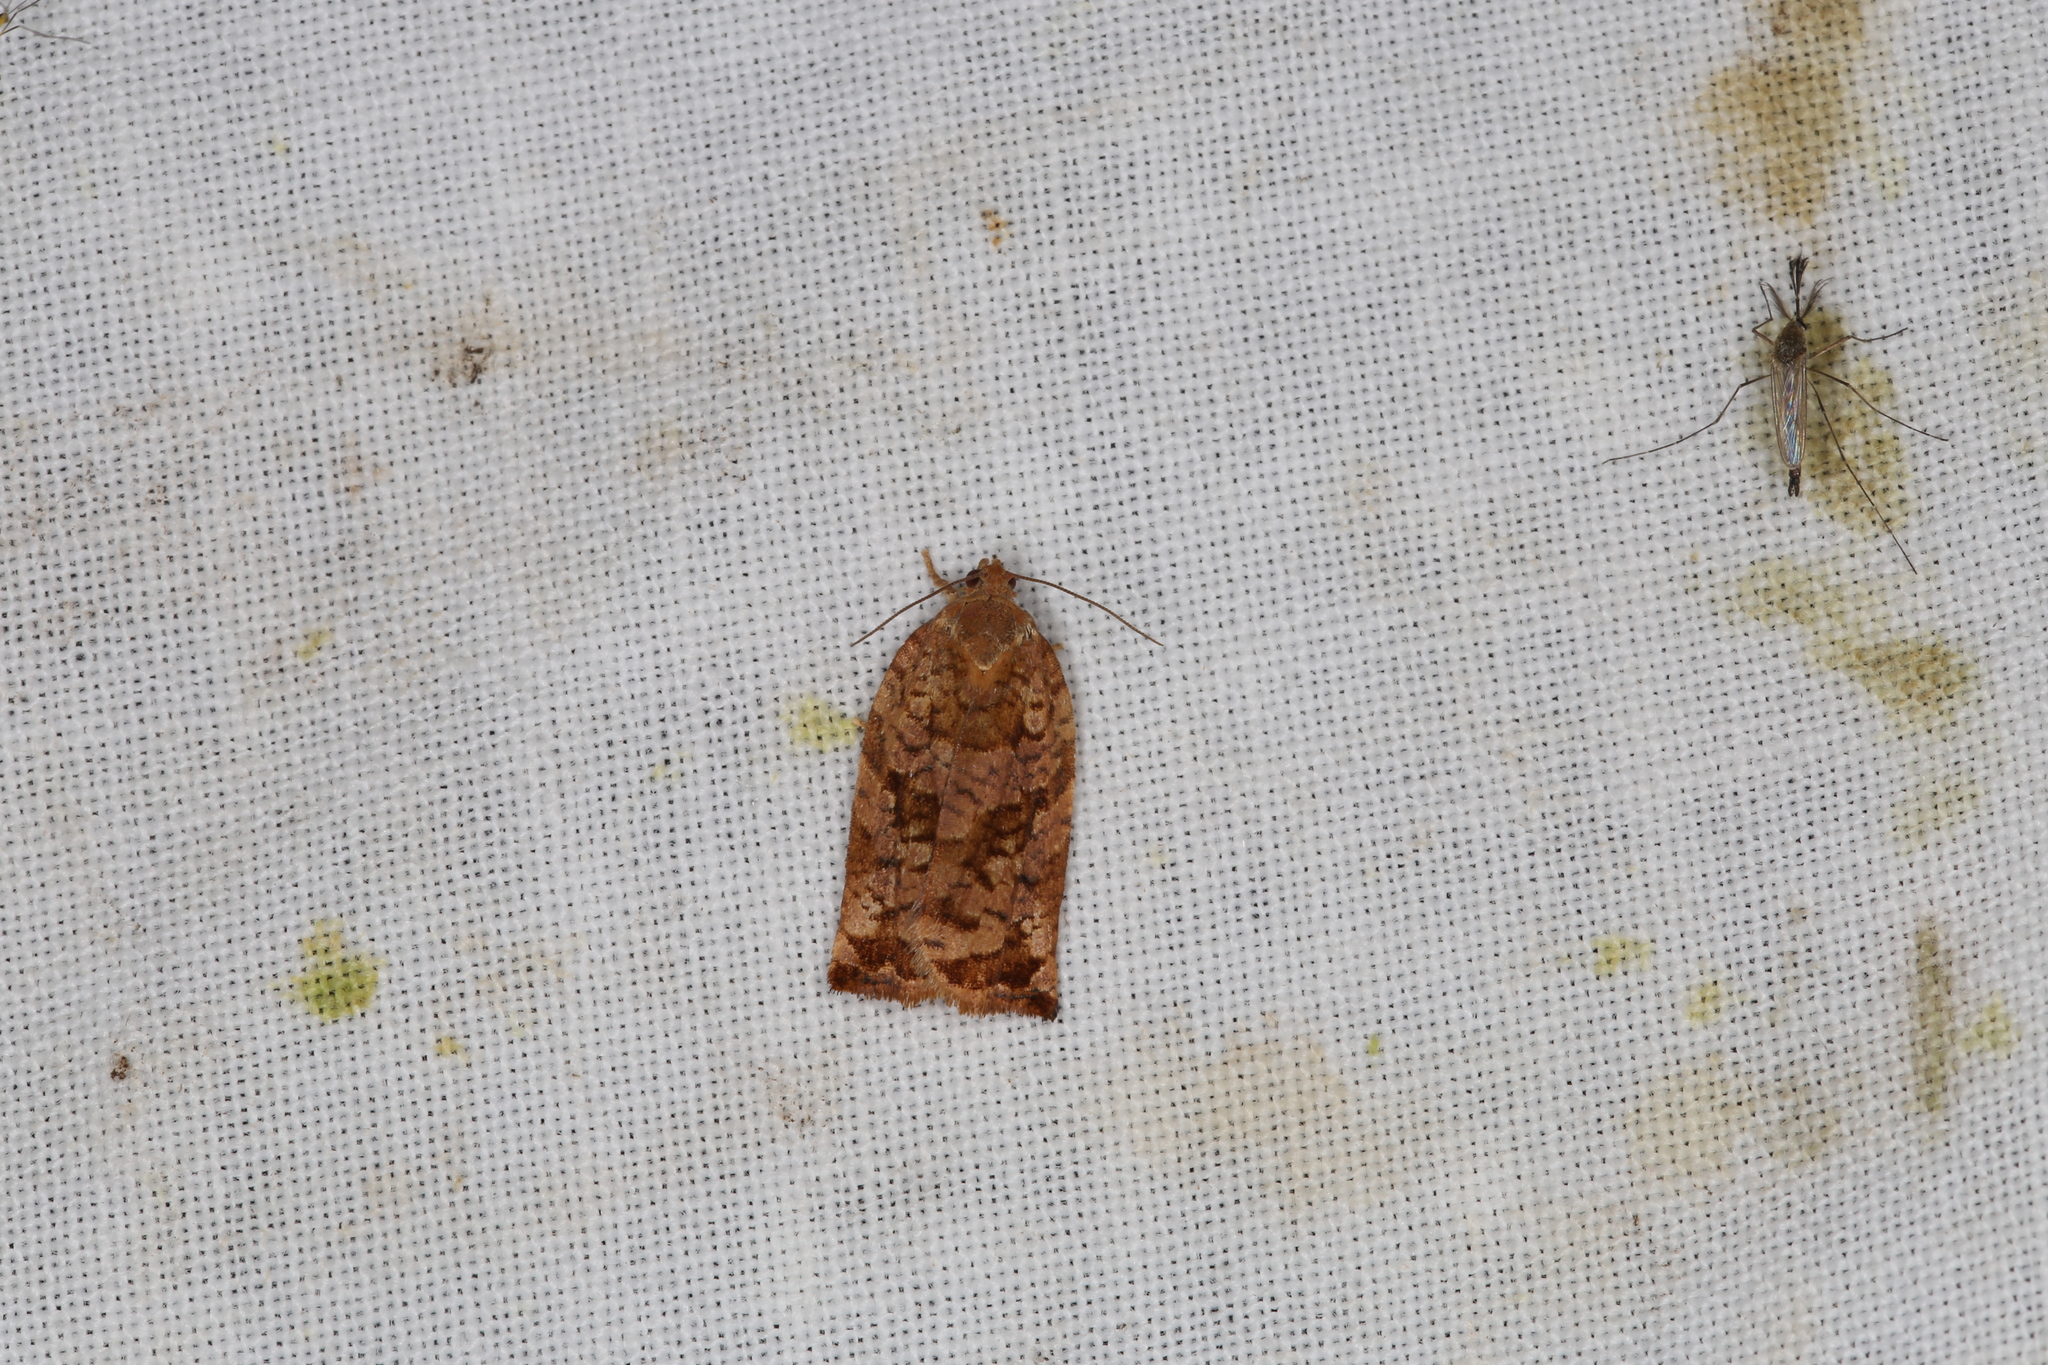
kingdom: Animalia
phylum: Arthropoda
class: Insecta
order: Lepidoptera
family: Tortricidae
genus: Archips
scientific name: Archips oporana
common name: Sprice tortrix moth
